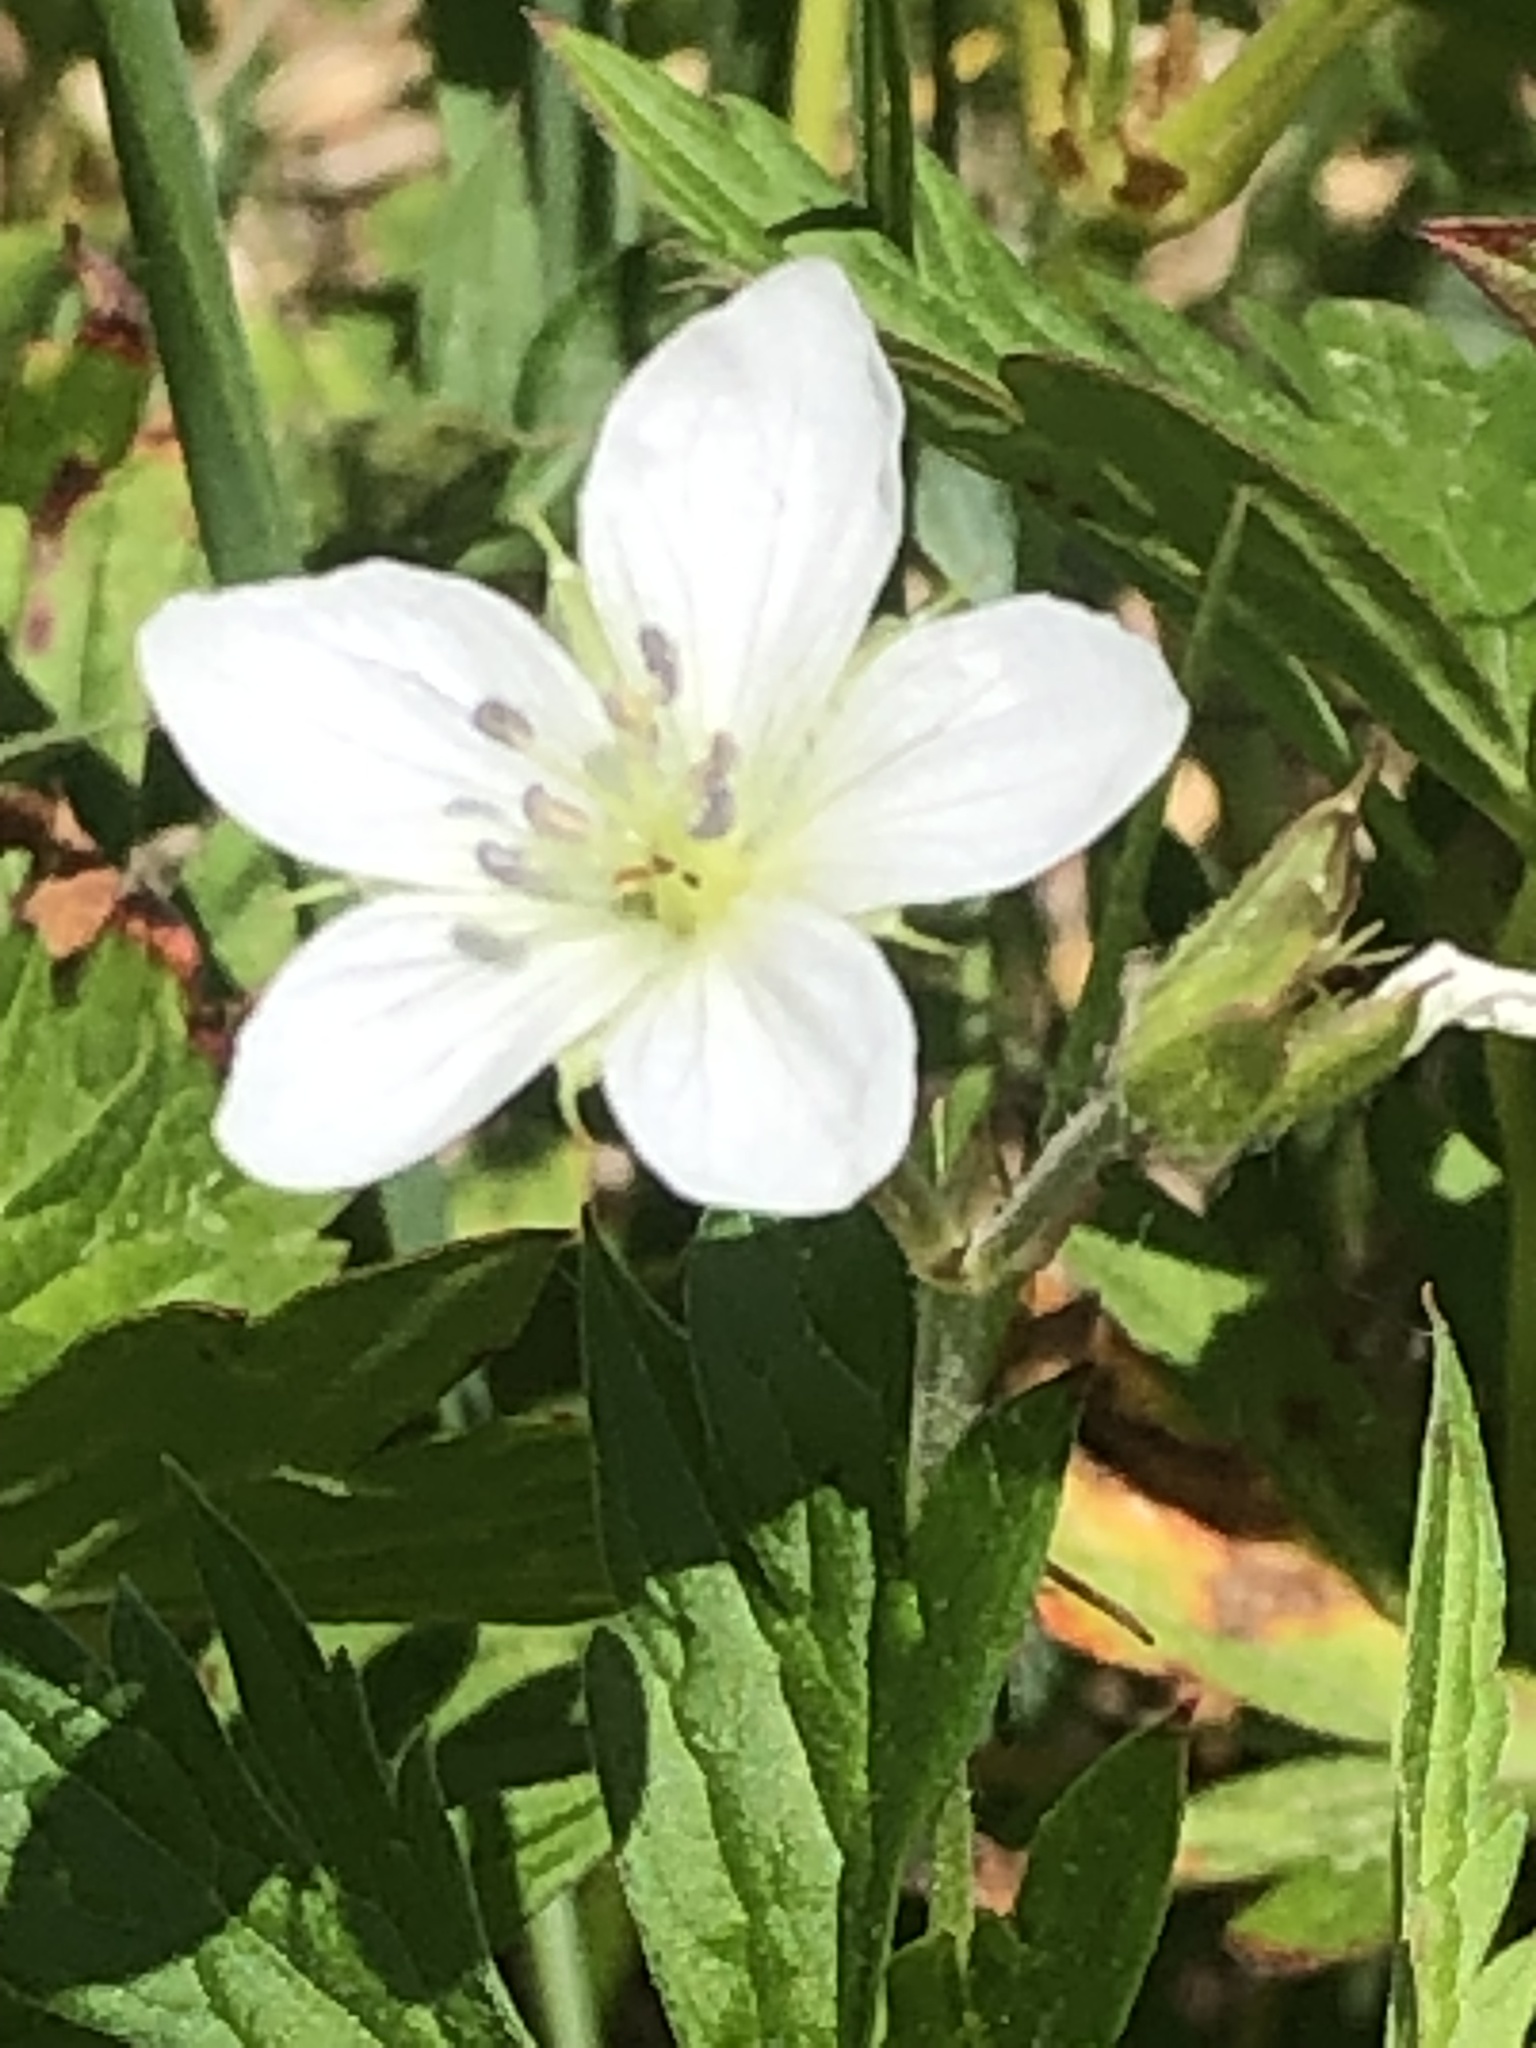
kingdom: Plantae
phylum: Tracheophyta
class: Magnoliopsida
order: Geraniales
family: Geraniaceae
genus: Geranium
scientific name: Geranium richardsonii
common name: Richardson's crane's-bill
